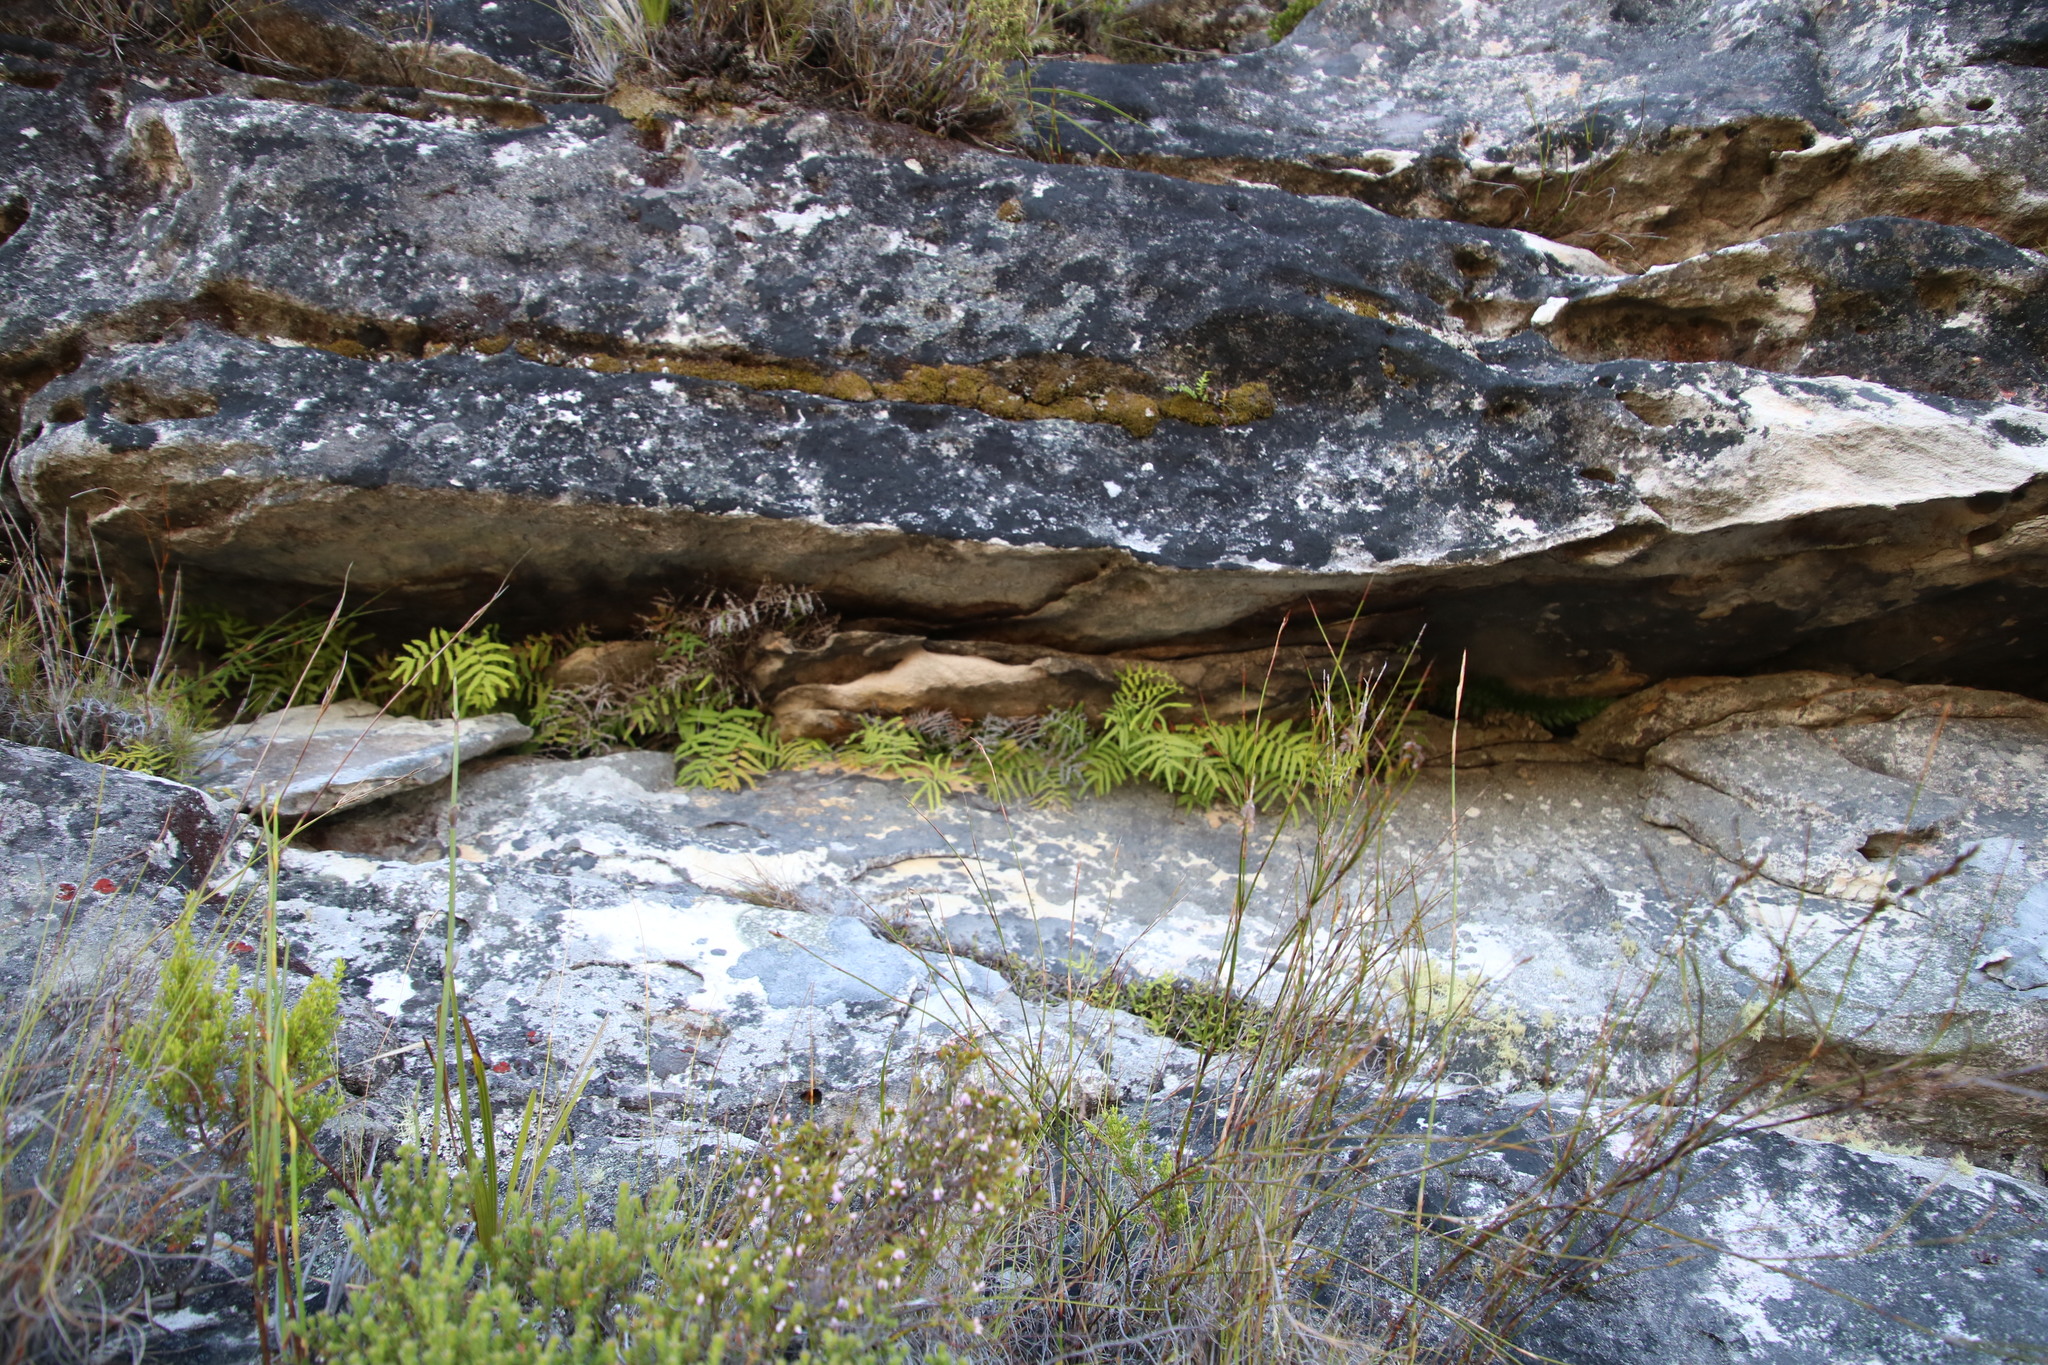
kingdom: Plantae
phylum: Tracheophyta
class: Polypodiopsida
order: Gleicheniales
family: Gleicheniaceae
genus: Gleichenia
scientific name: Gleichenia polypodioides
